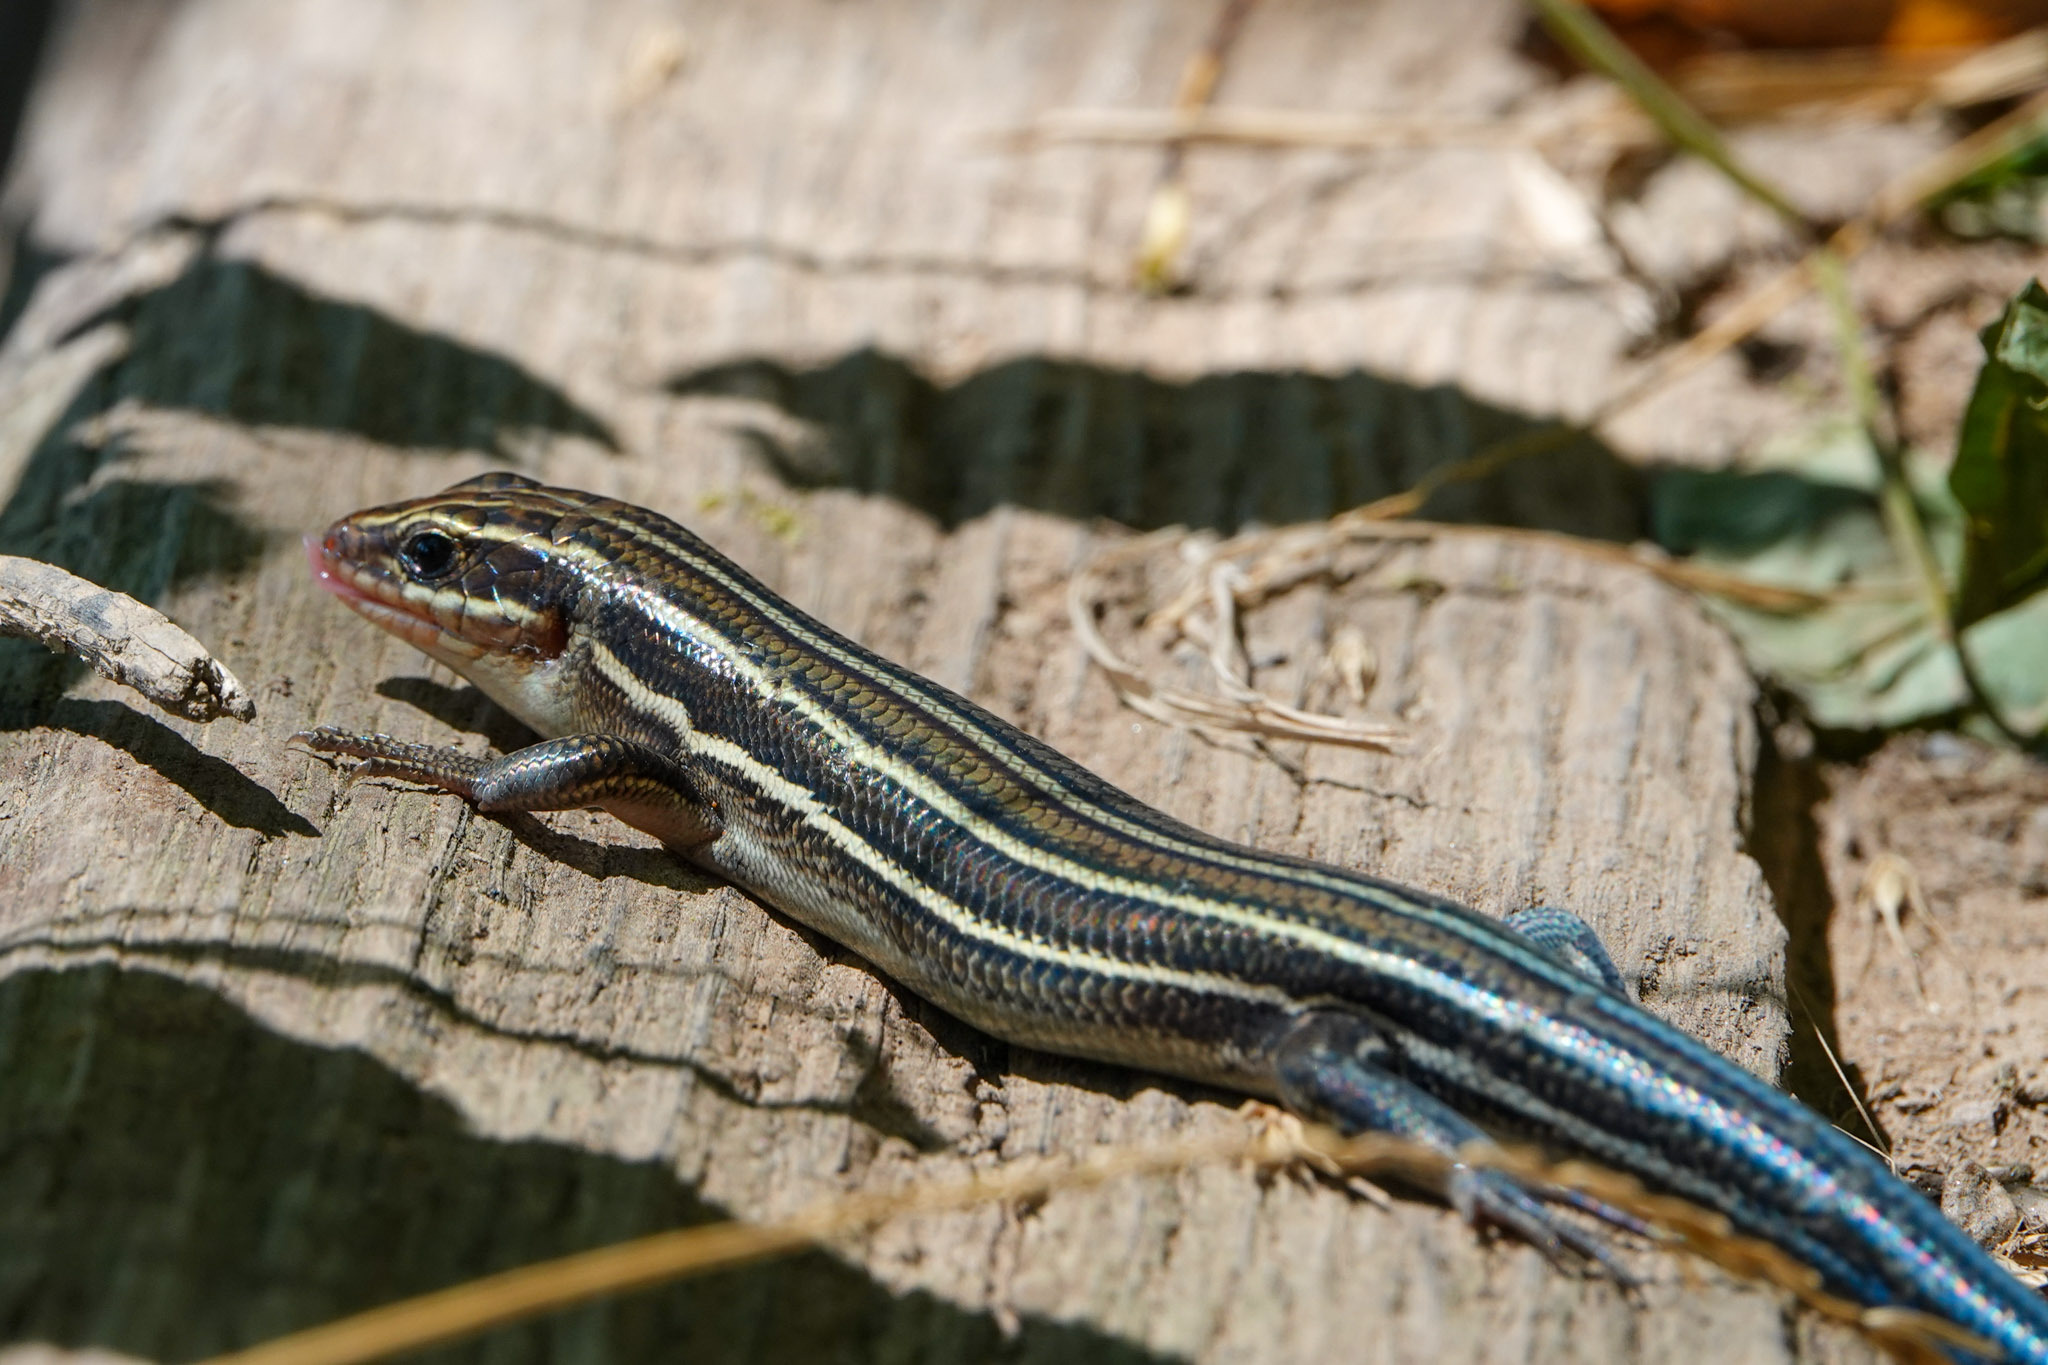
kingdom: Animalia
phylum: Chordata
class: Squamata
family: Scincidae
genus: Plestiodon
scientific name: Plestiodon laticeps
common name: Broadhead skink
